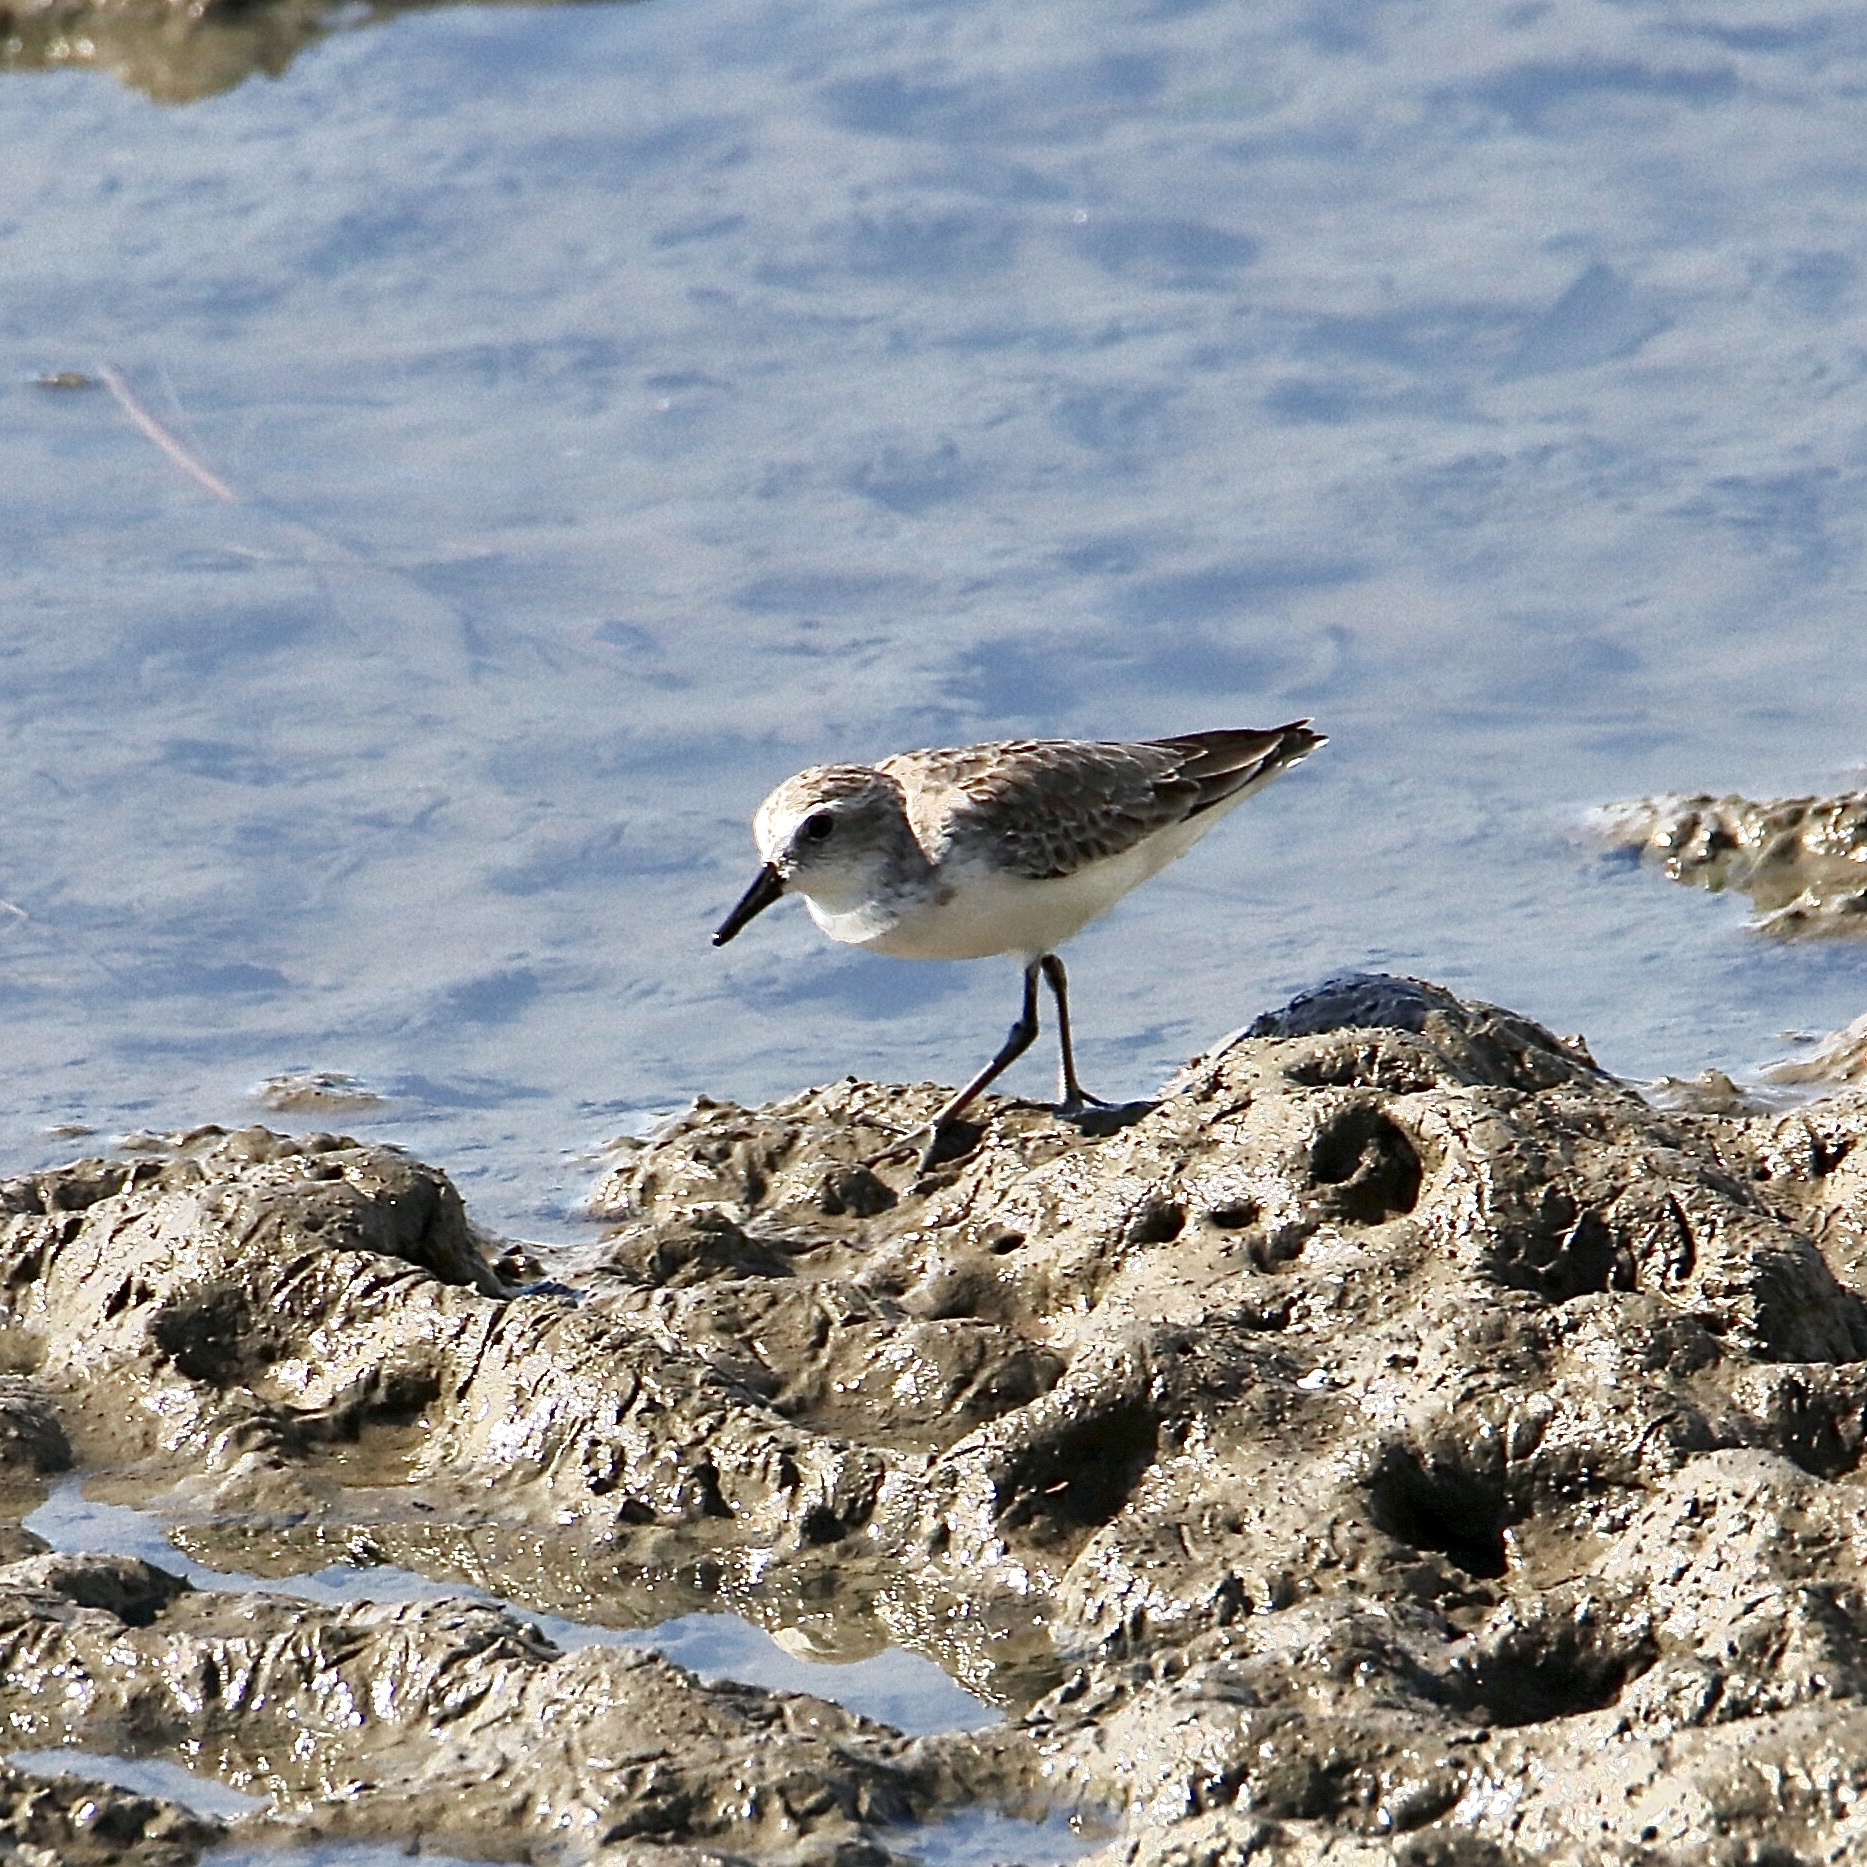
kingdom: Animalia
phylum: Chordata
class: Aves
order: Charadriiformes
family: Scolopacidae
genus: Calidris
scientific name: Calidris pusilla
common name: Semipalmated sandpiper
